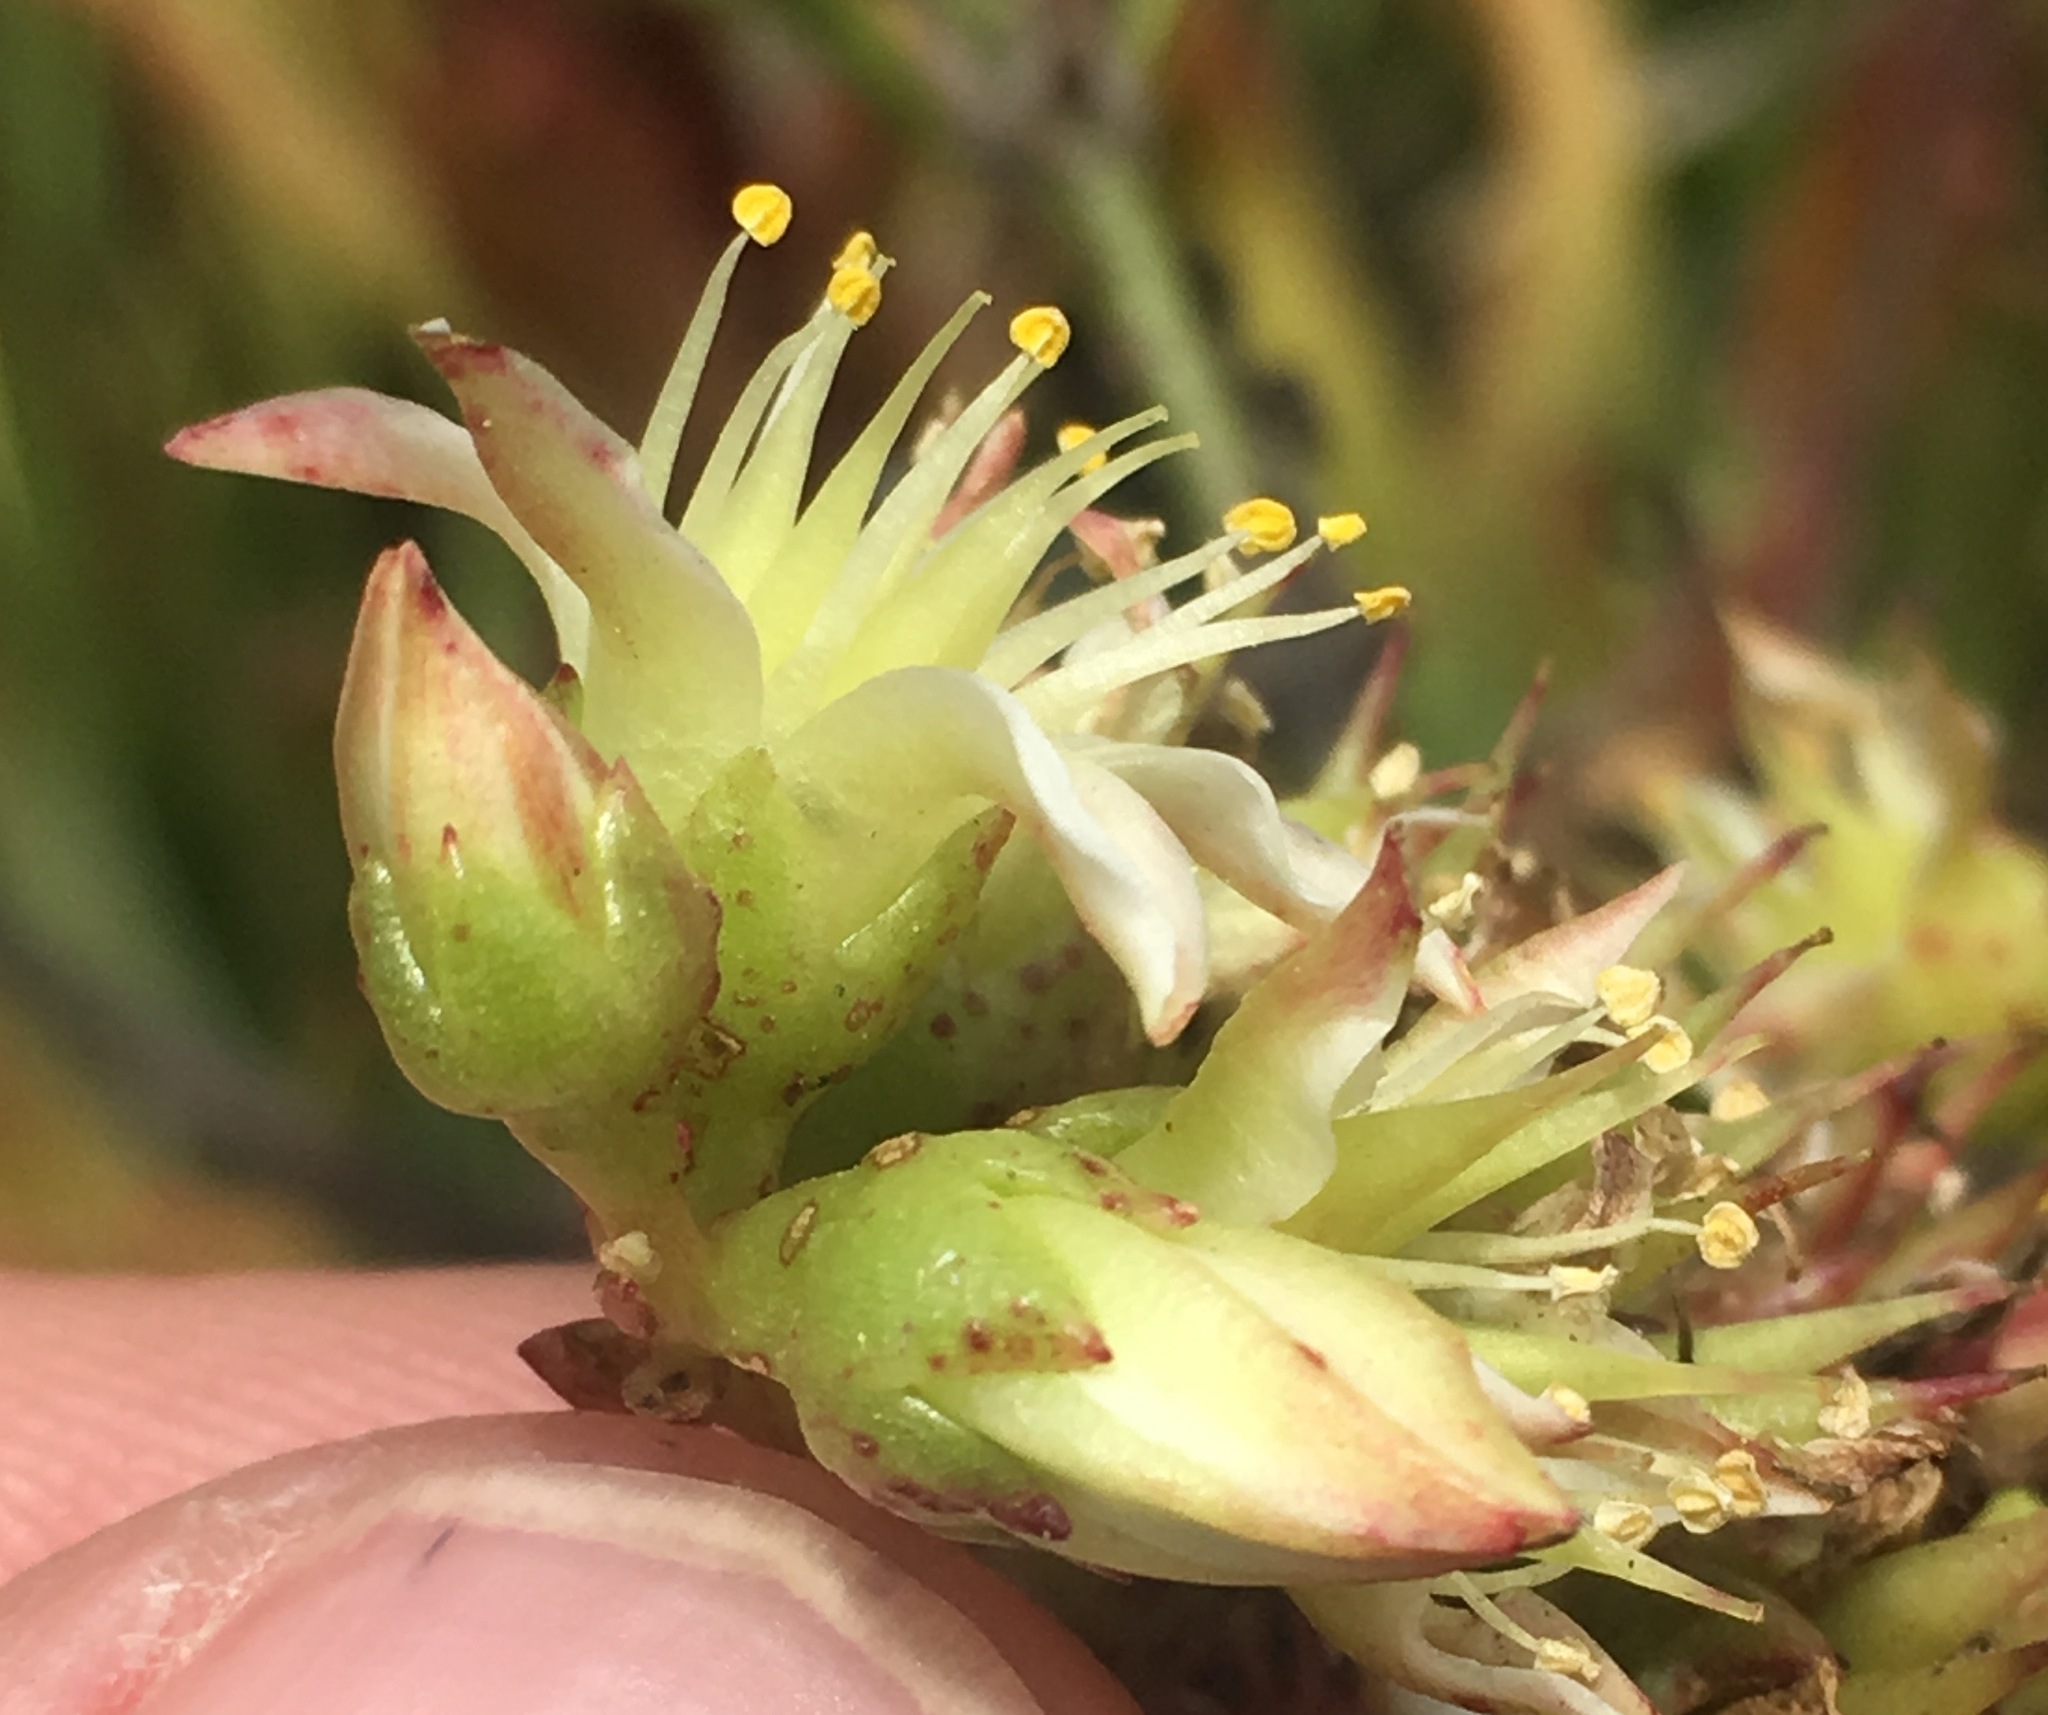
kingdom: Plantae
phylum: Tracheophyta
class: Magnoliopsida
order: Saxifragales
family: Crassulaceae
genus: Dudleya
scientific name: Dudleya virens
